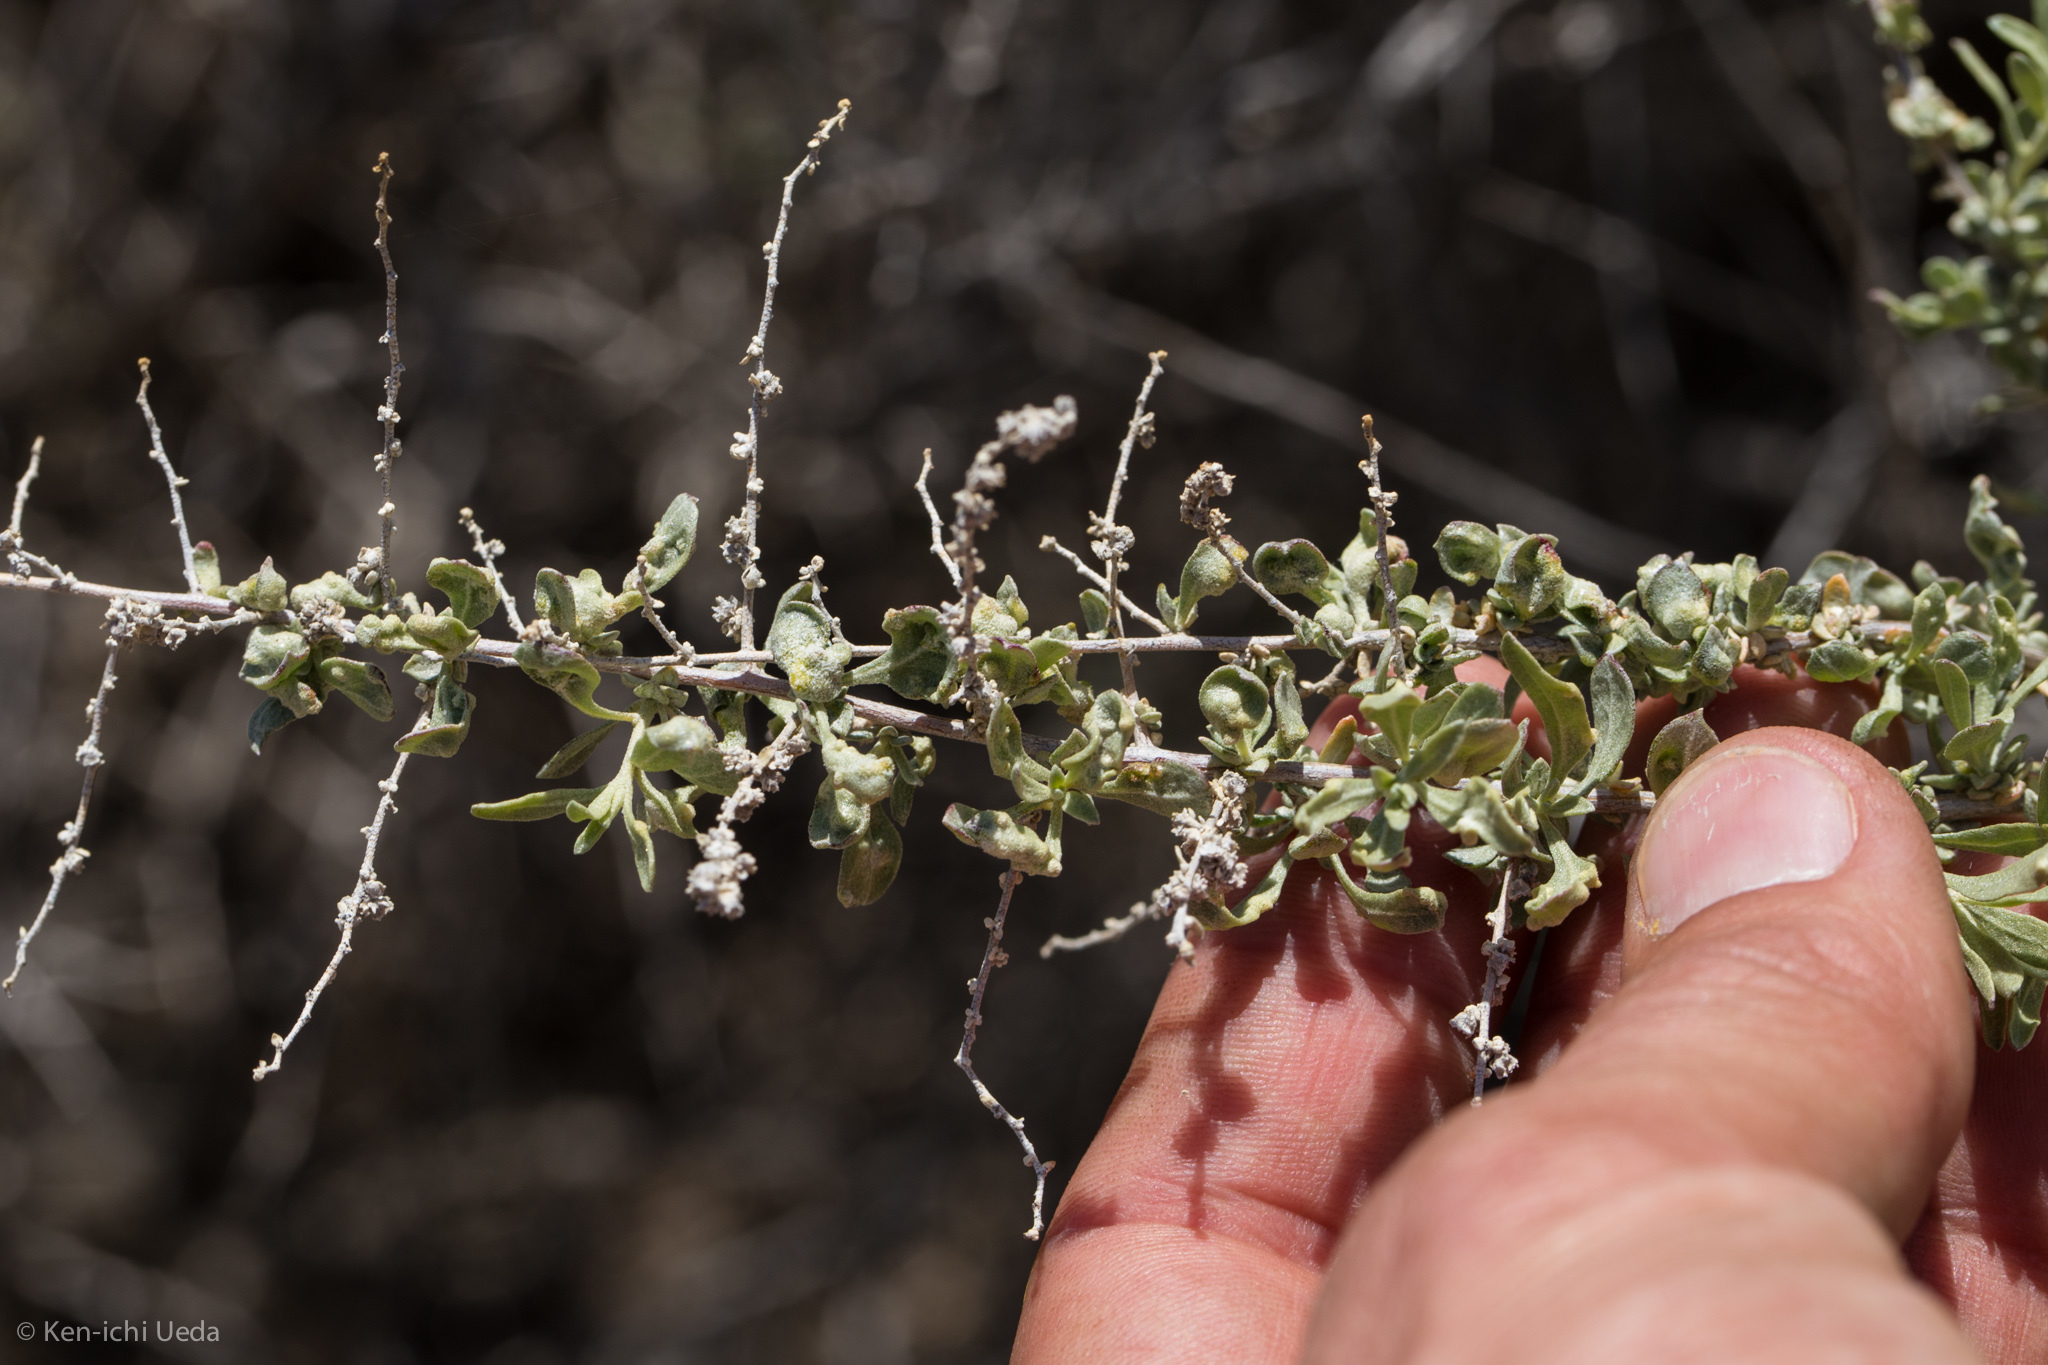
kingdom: Plantae
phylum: Tracheophyta
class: Magnoliopsida
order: Caryophyllales
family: Amaranthaceae
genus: Atriplex
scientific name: Atriplex polycarpa
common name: Desert saltbush
